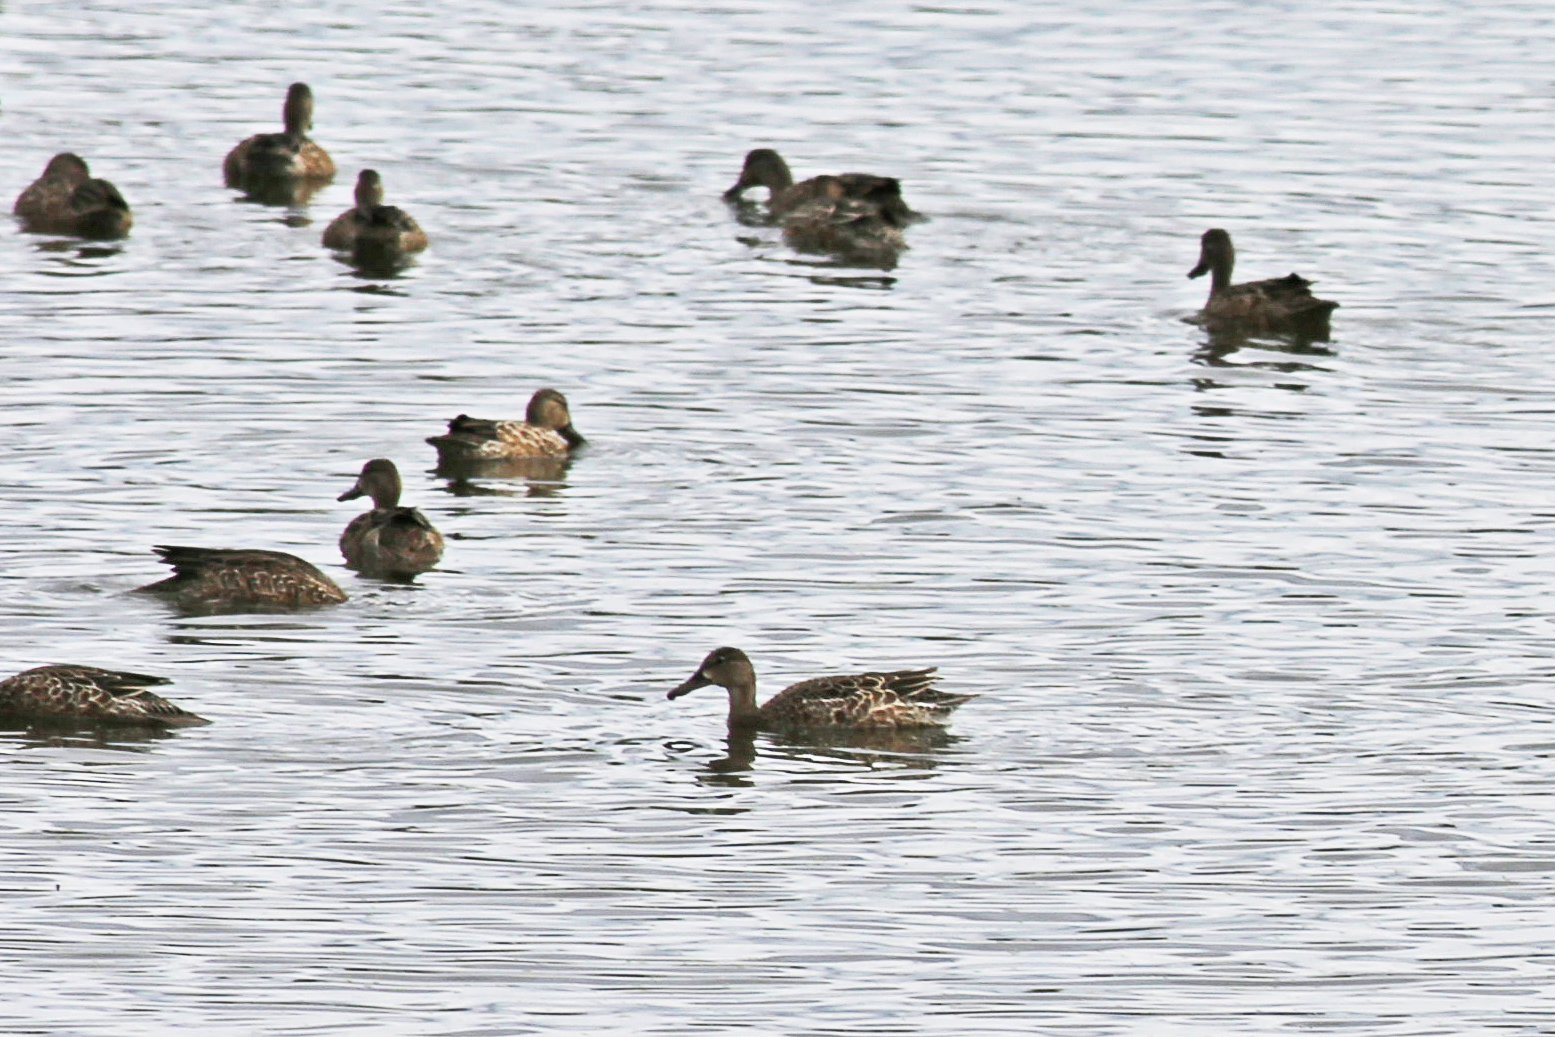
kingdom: Animalia
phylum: Chordata
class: Aves
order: Anseriformes
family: Anatidae
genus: Spatula
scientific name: Spatula discors
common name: Blue-winged teal
